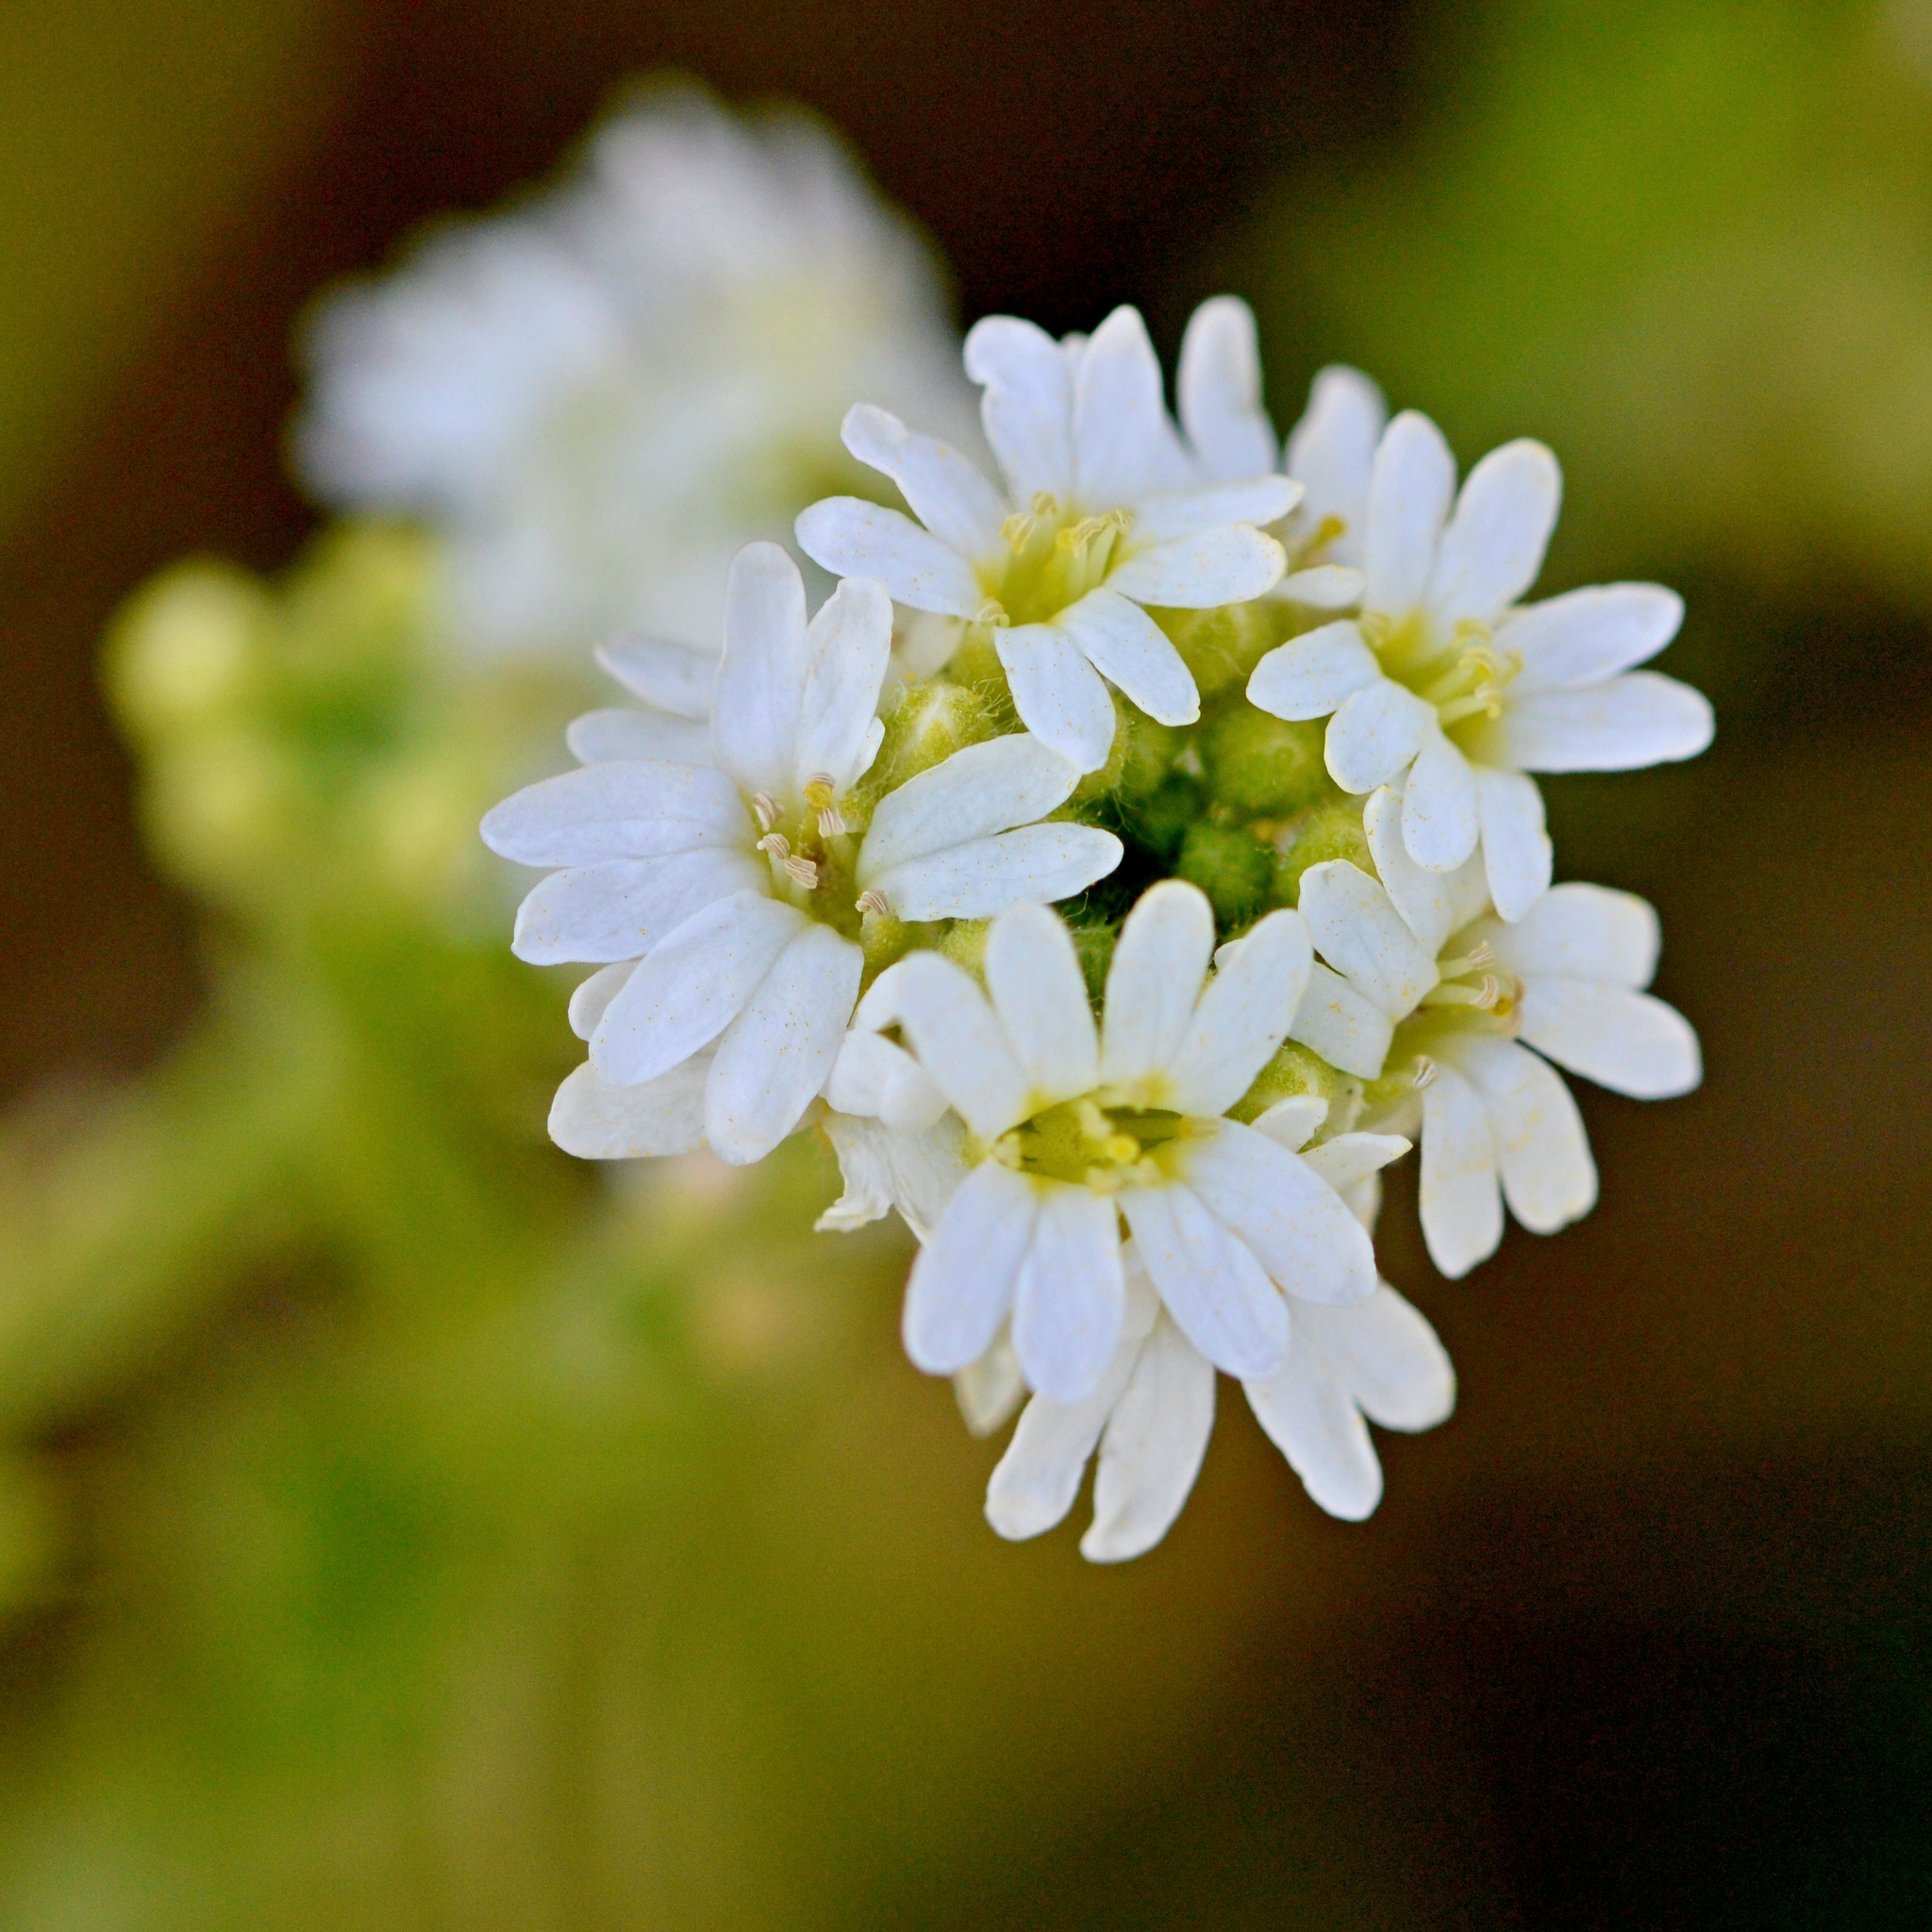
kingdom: Plantae
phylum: Tracheophyta
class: Magnoliopsida
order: Brassicales
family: Brassicaceae
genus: Berteroa
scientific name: Berteroa incana
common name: Hoary alison
